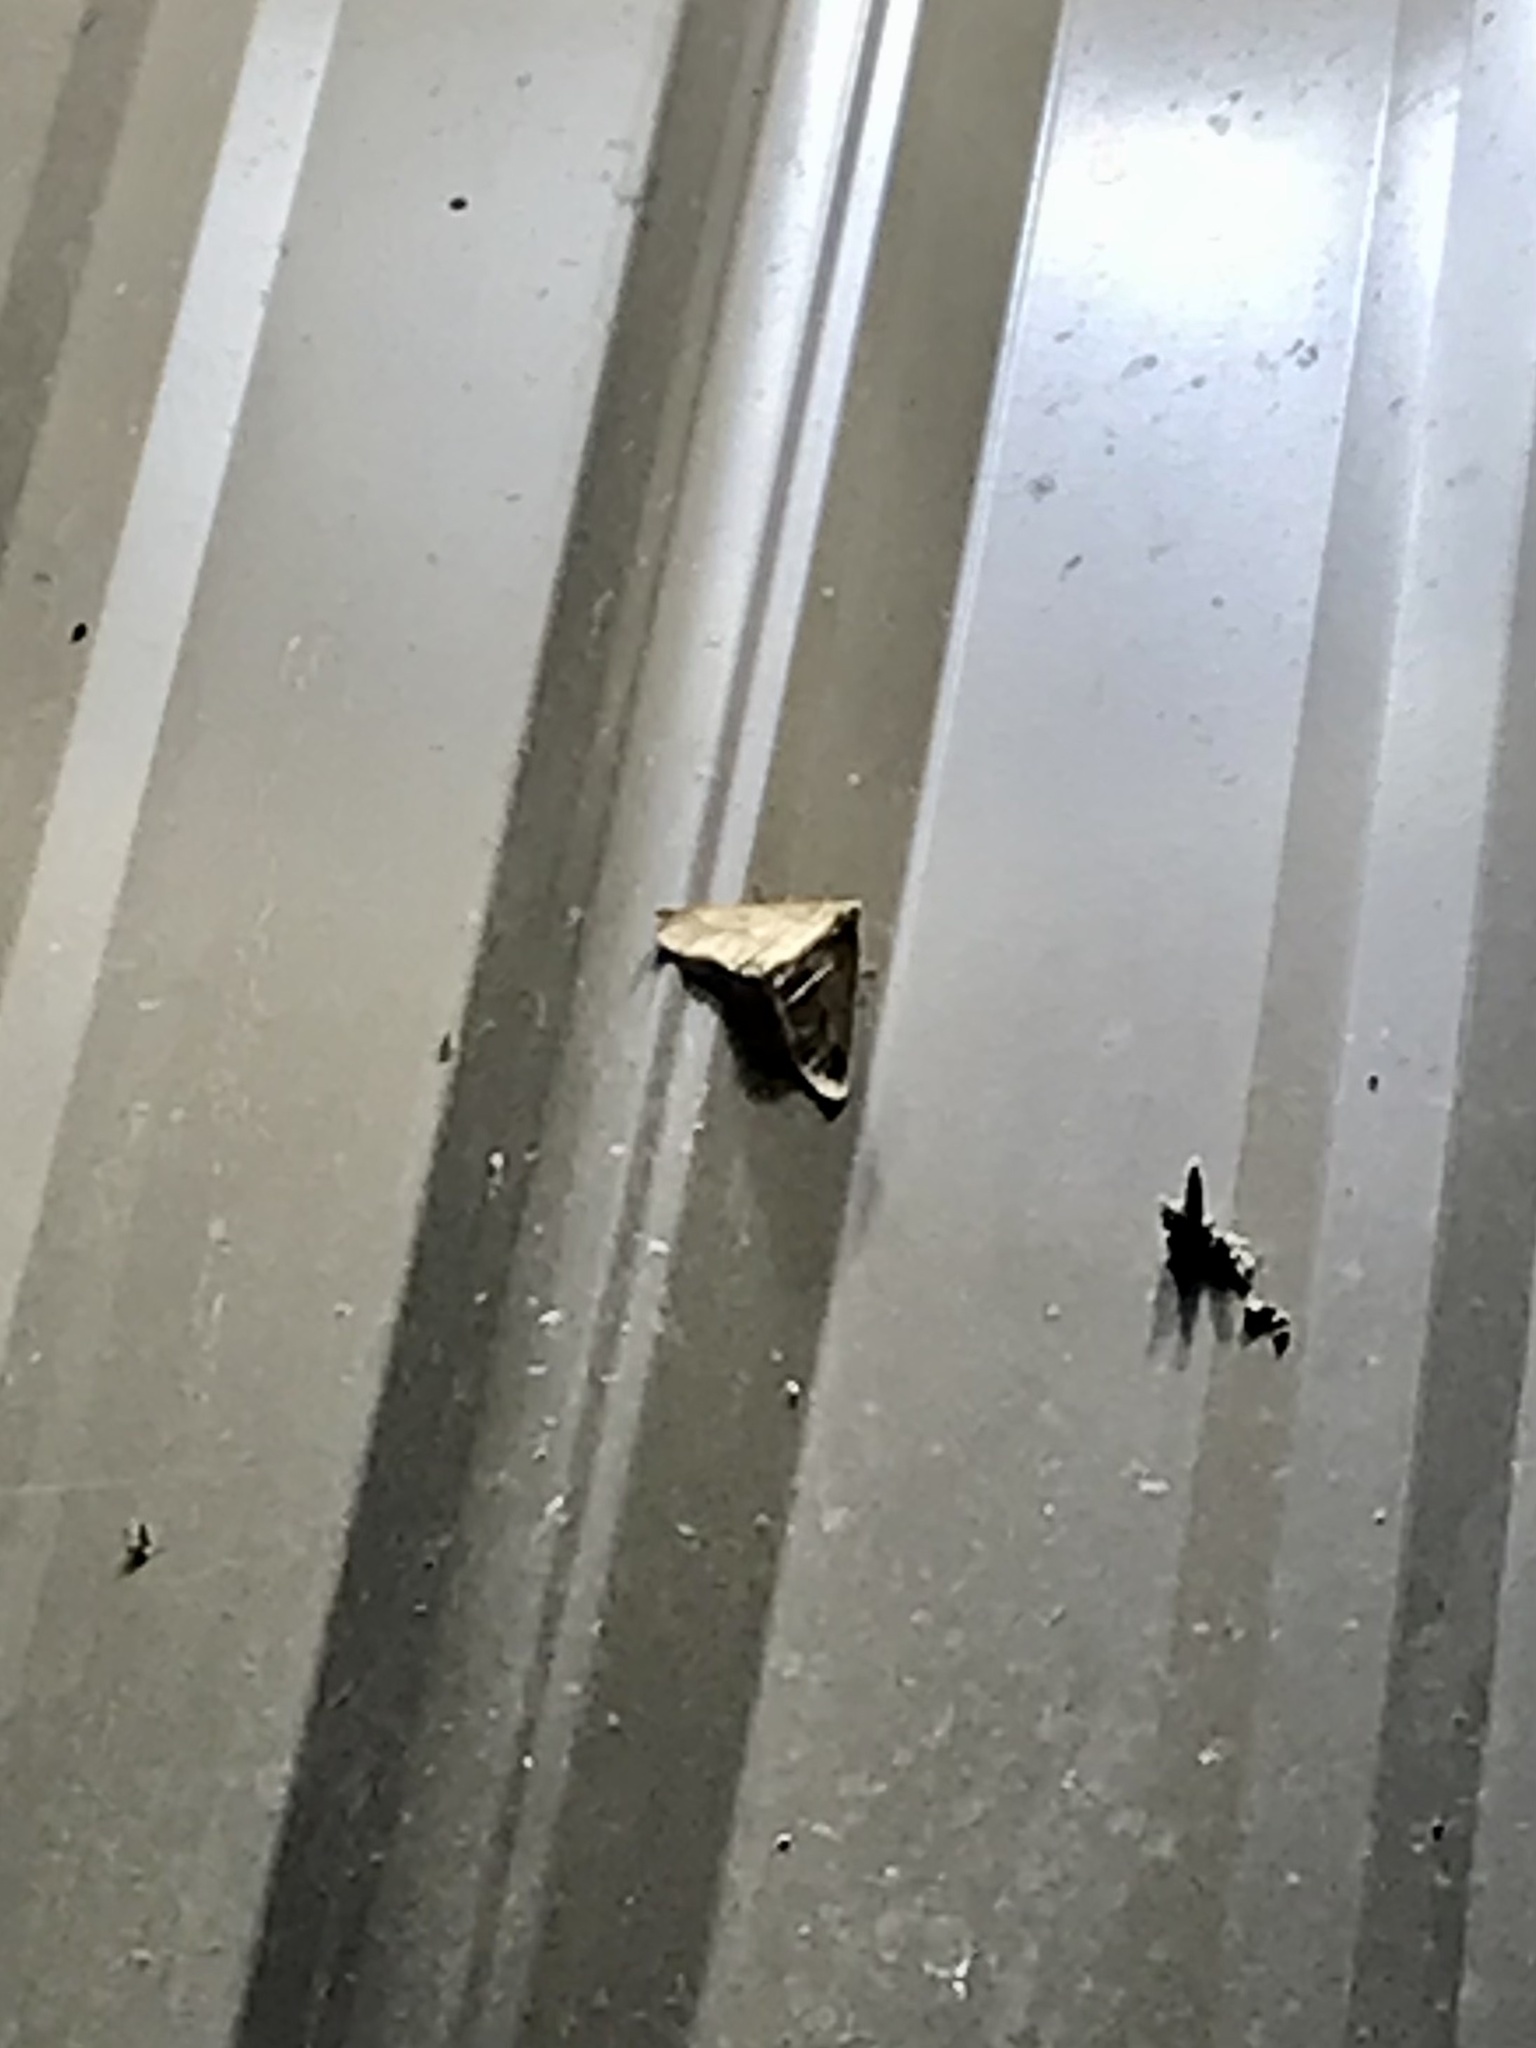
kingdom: Animalia
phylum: Arthropoda
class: Insecta
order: Lepidoptera
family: Geometridae
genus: Erannis
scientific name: Erannis tiliaria
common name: Linden looper
